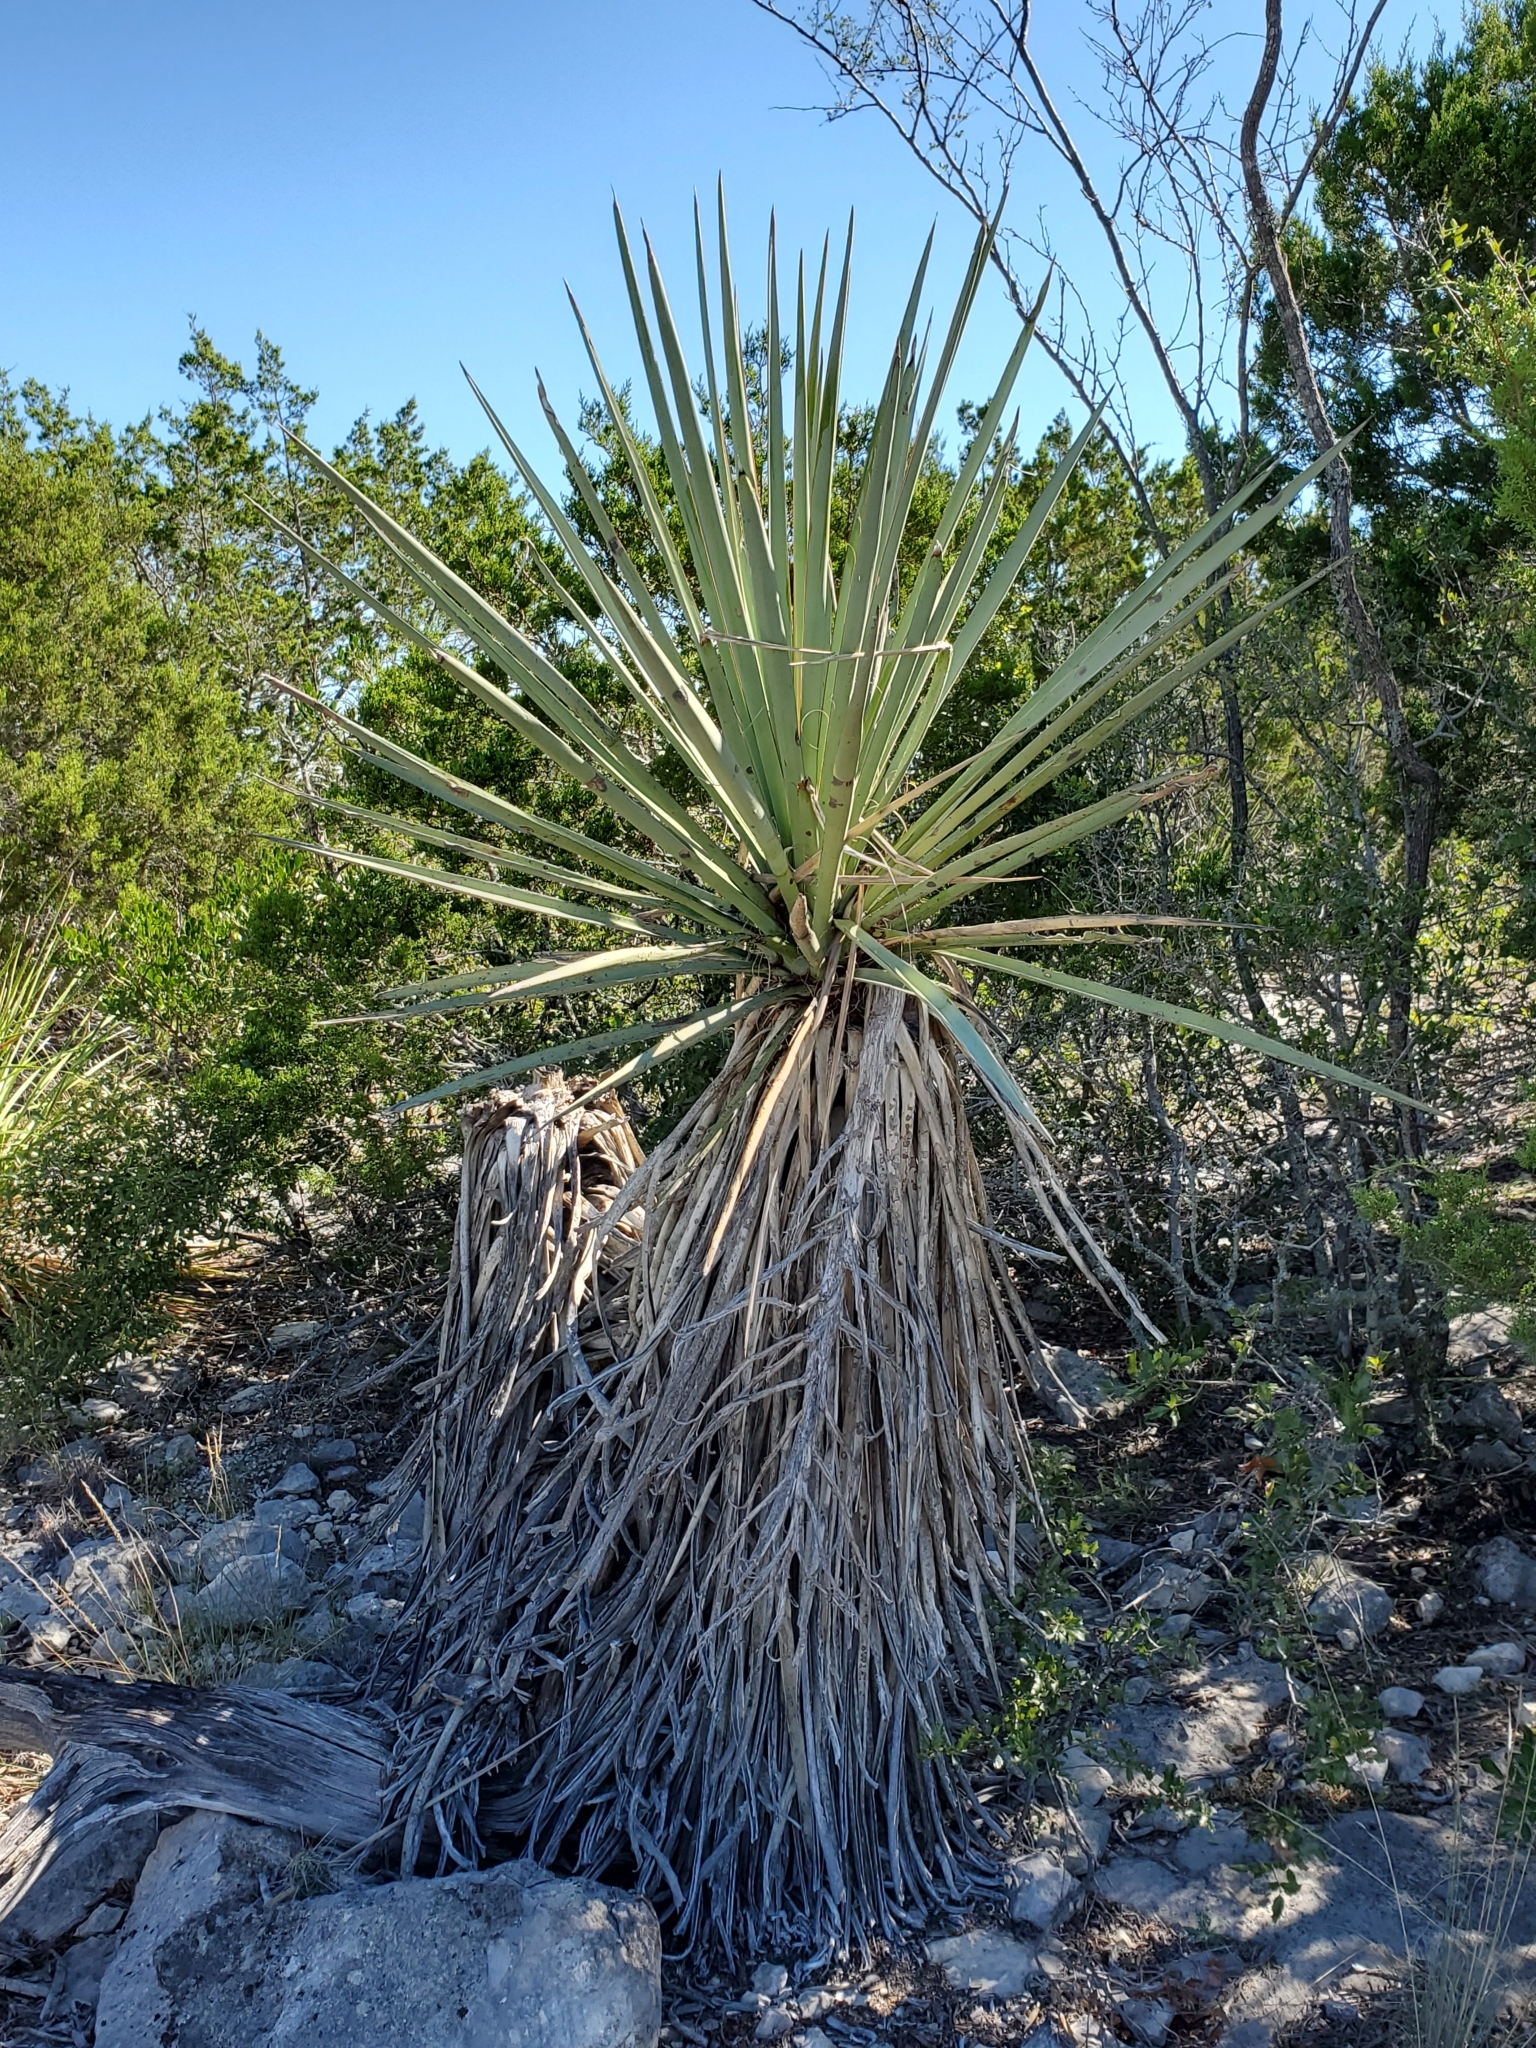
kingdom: Plantae
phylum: Tracheophyta
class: Liliopsida
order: Asparagales
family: Asparagaceae
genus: Yucca
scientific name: Yucca treculiana
